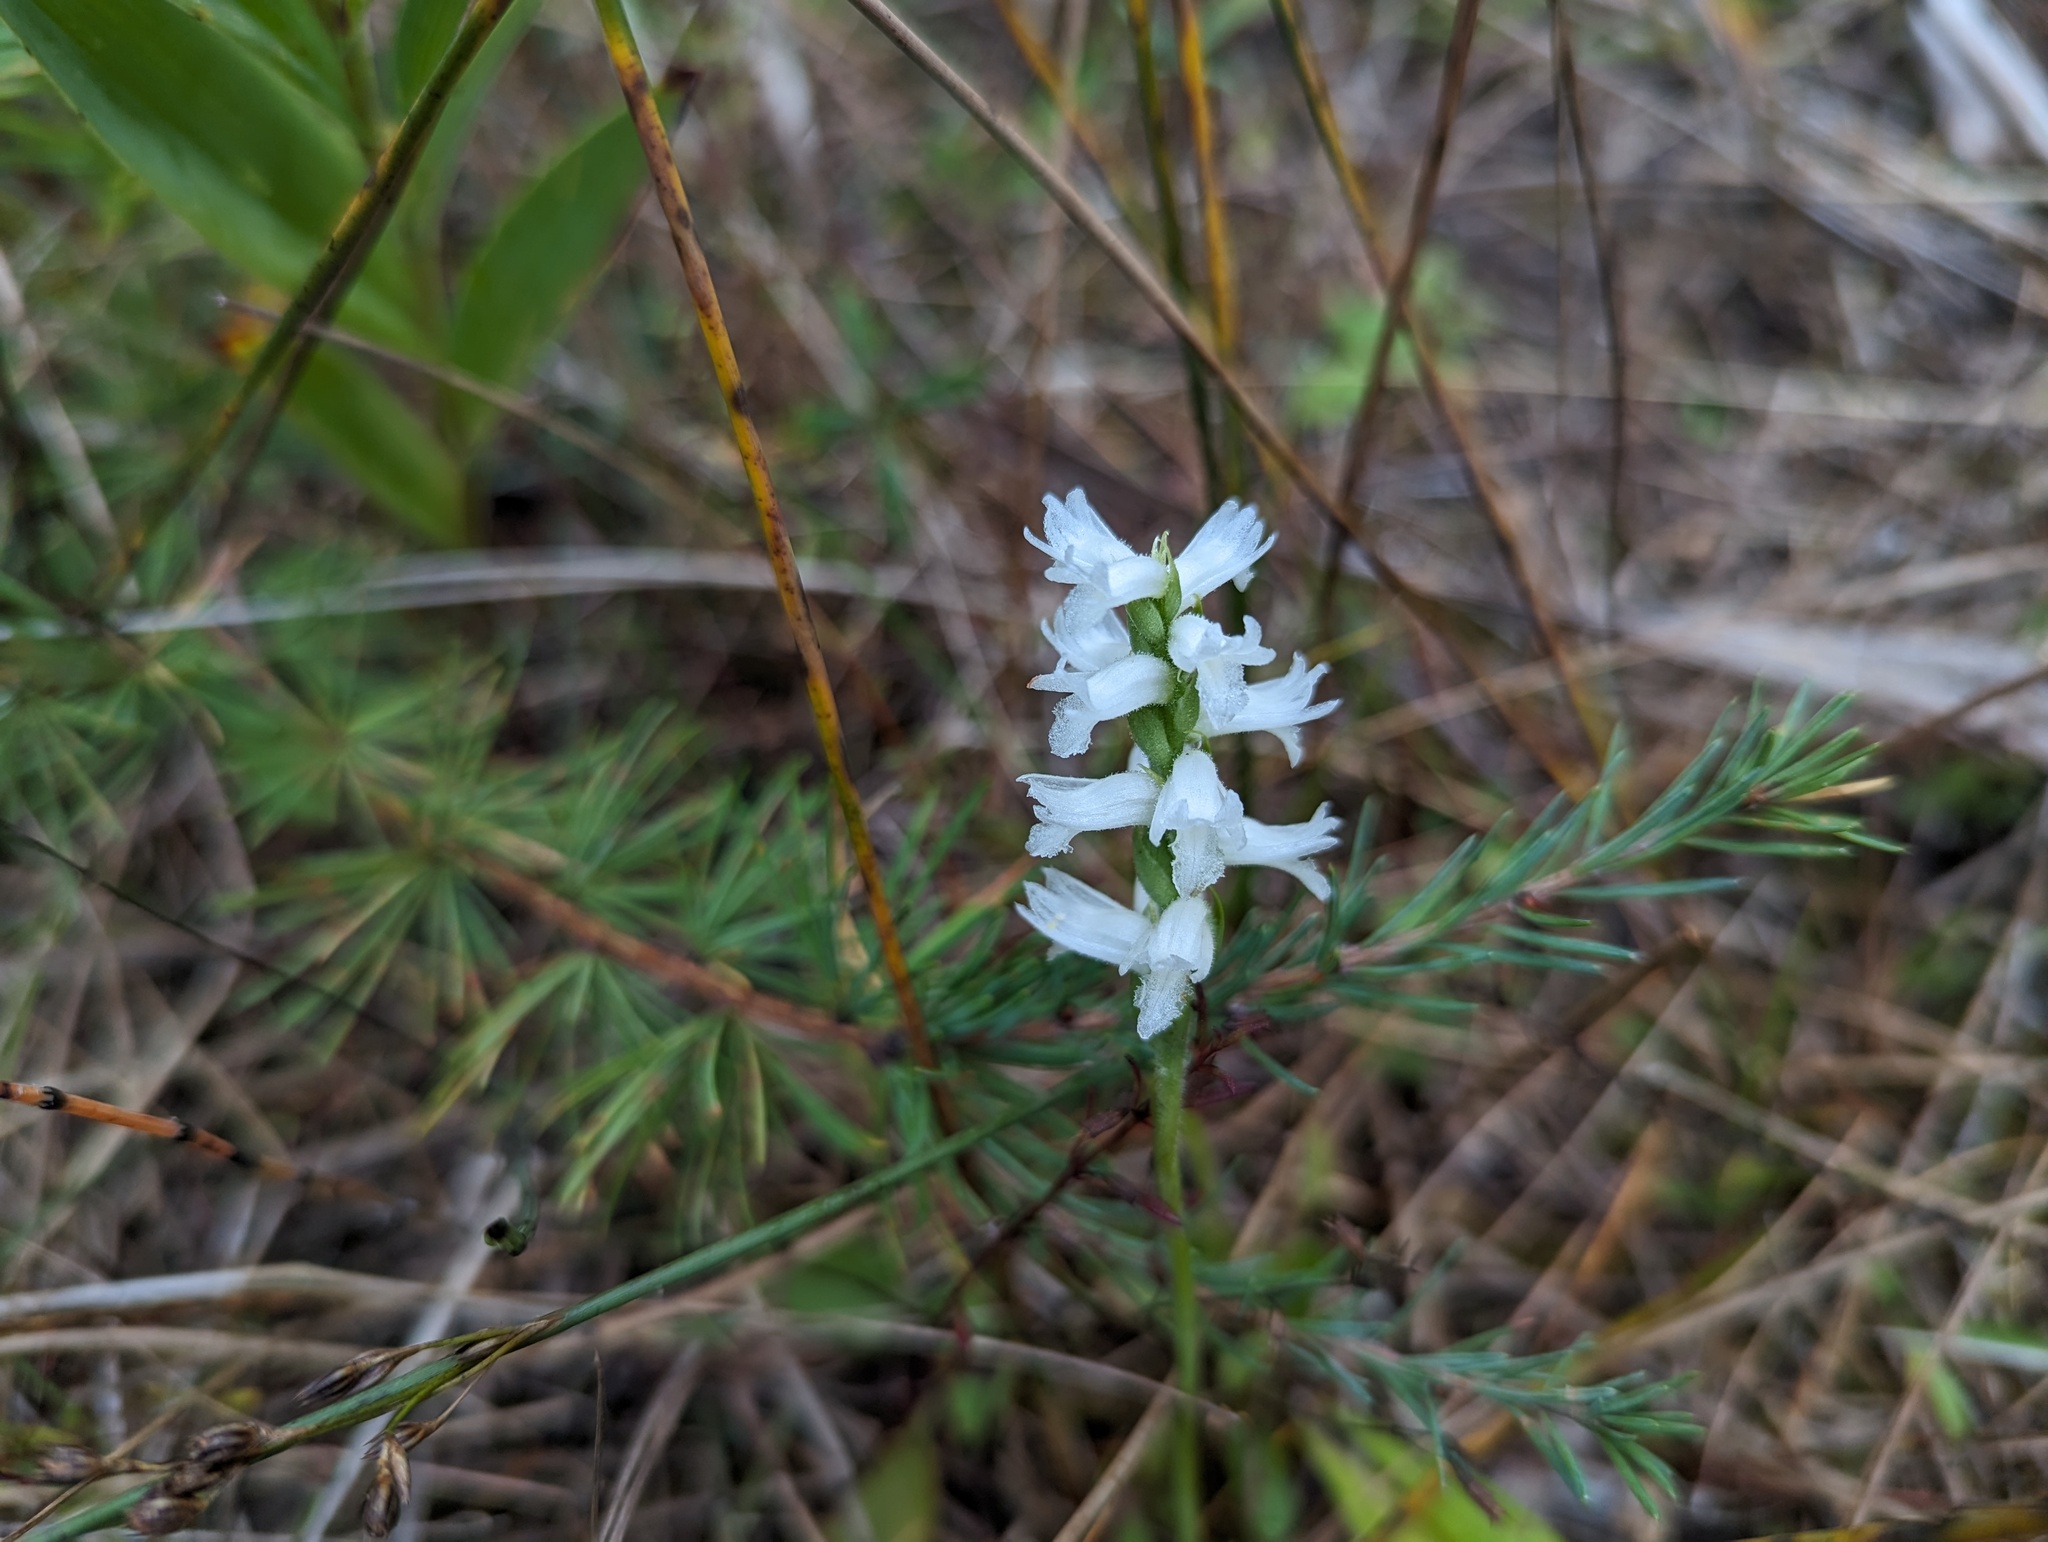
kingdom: Plantae
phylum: Tracheophyta
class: Liliopsida
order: Asparagales
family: Orchidaceae
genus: Spiranthes
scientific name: Spiranthes incurva
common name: Sphinx ladies'-tresses
